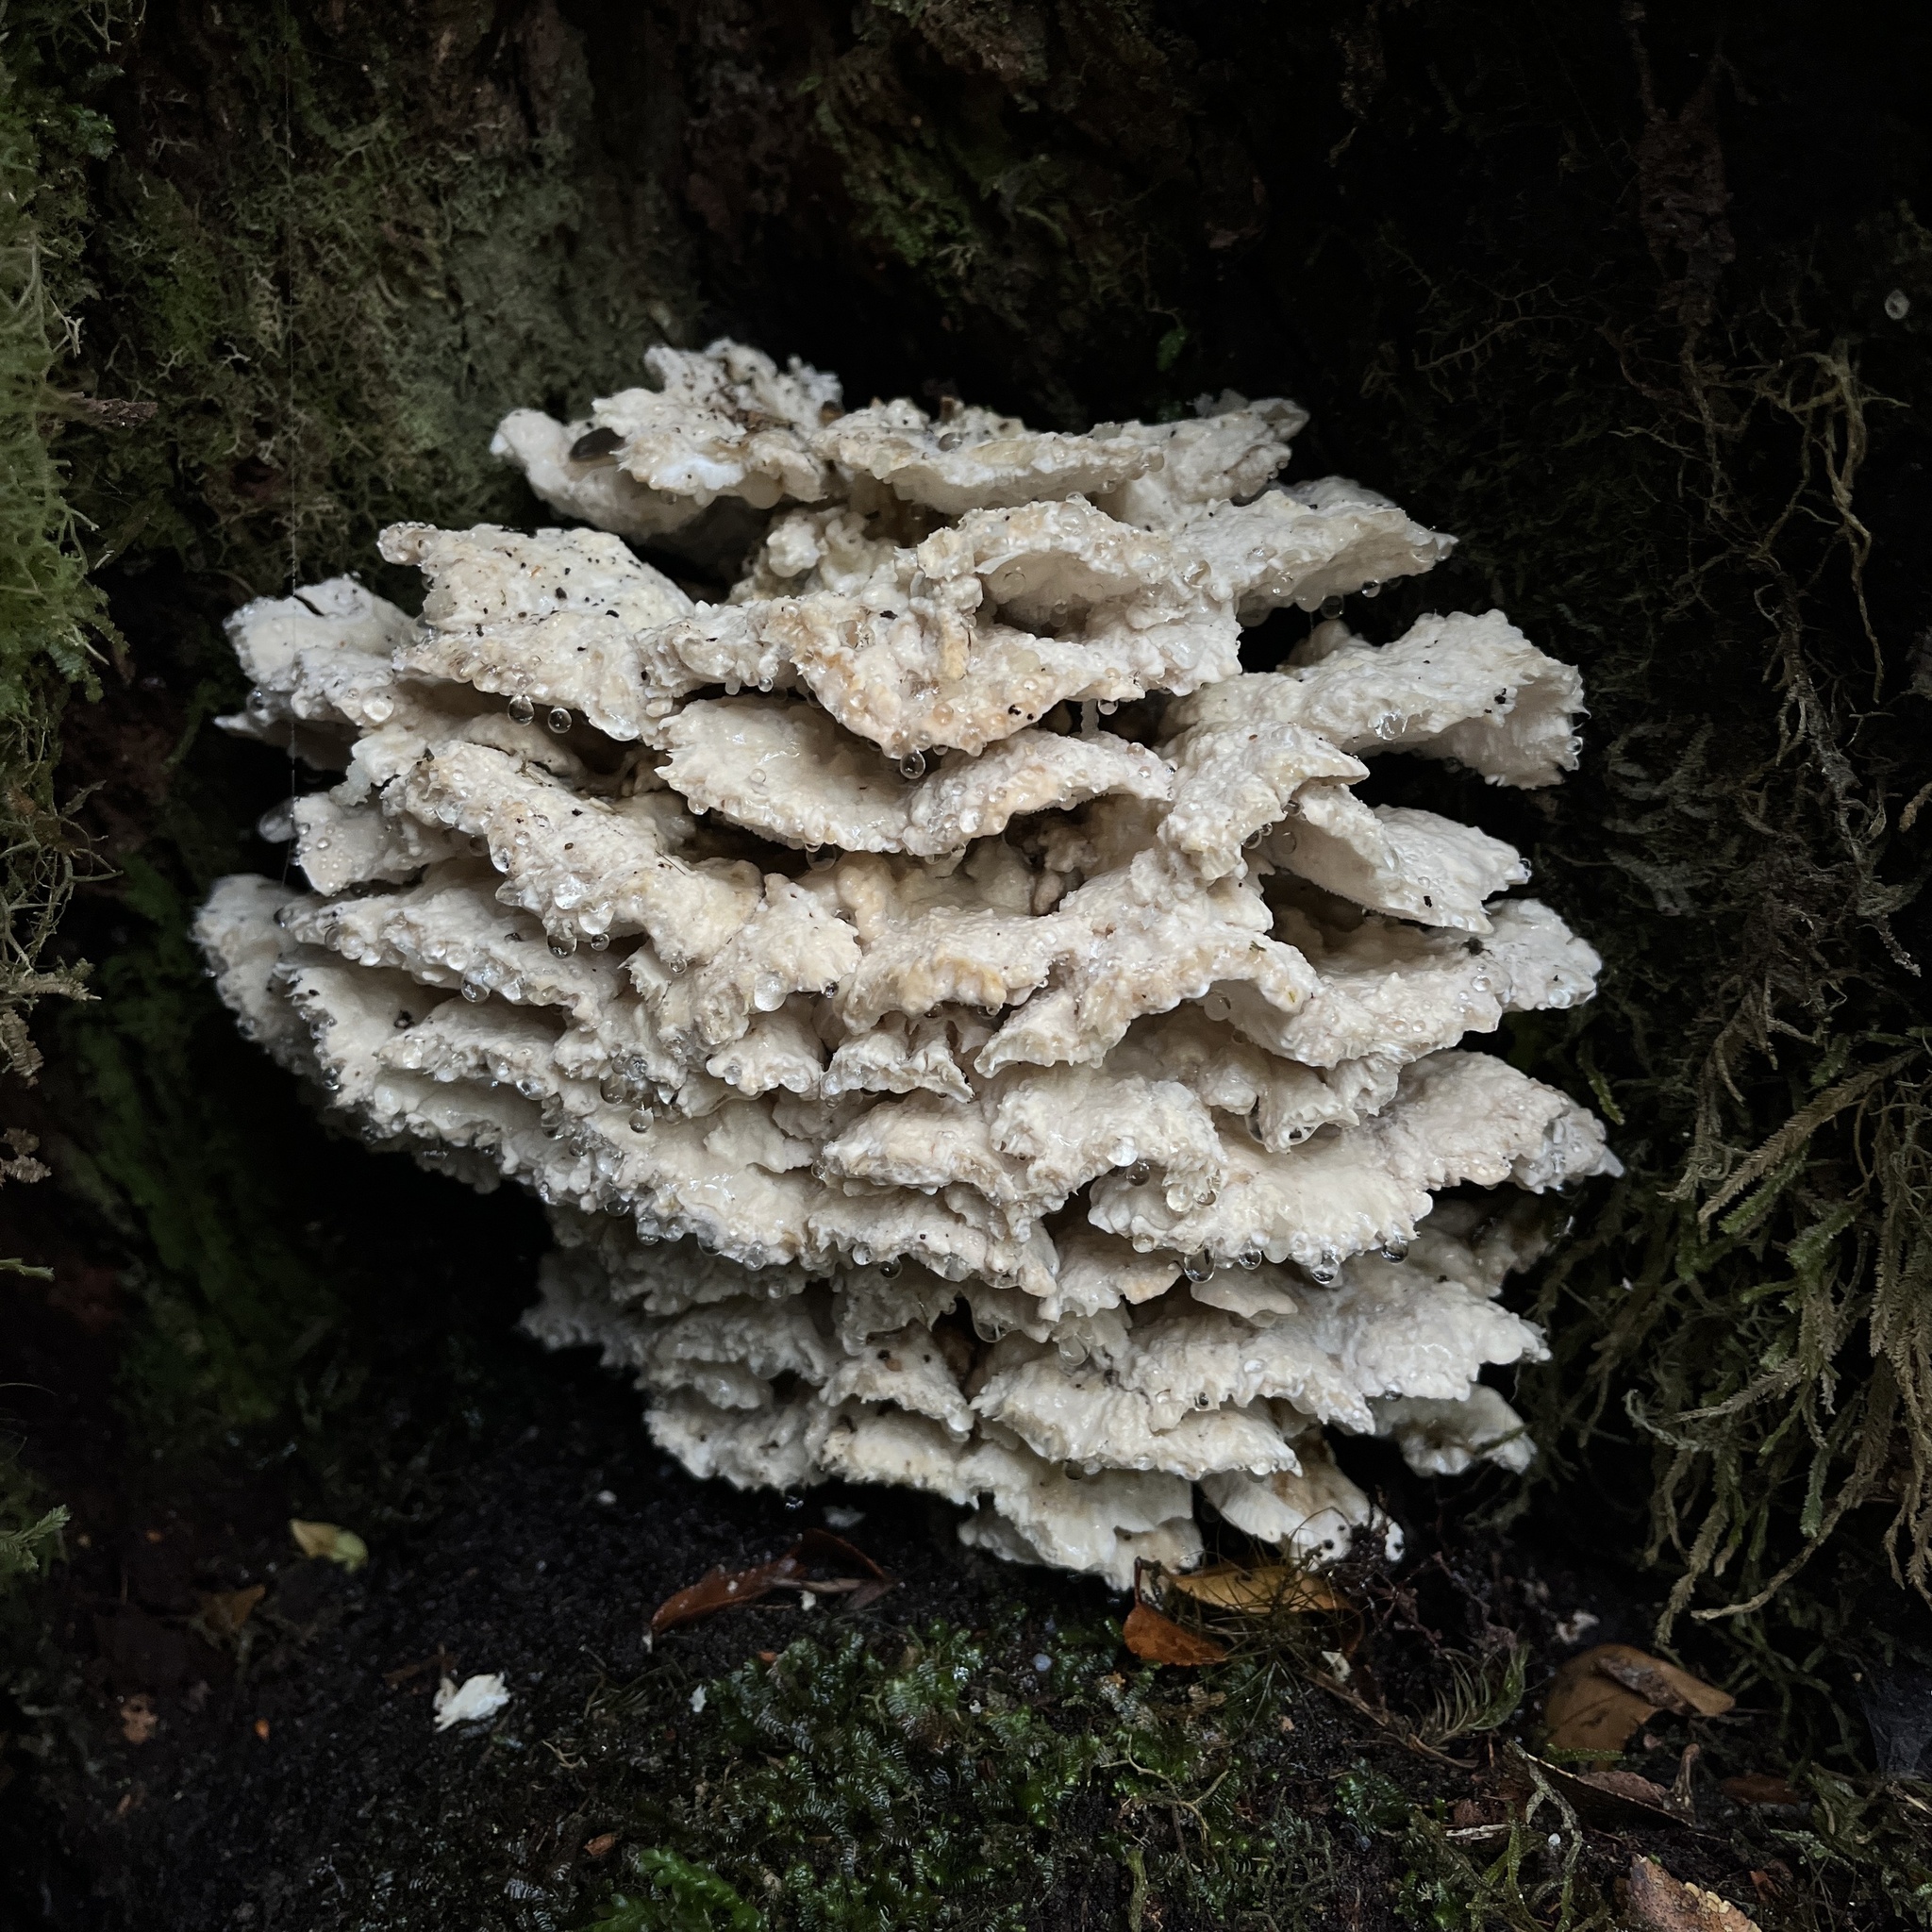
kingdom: Fungi
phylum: Basidiomycota
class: Agaricomycetes
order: Polyporales
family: Dacryobolaceae
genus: Postia
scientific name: Postia punctata
